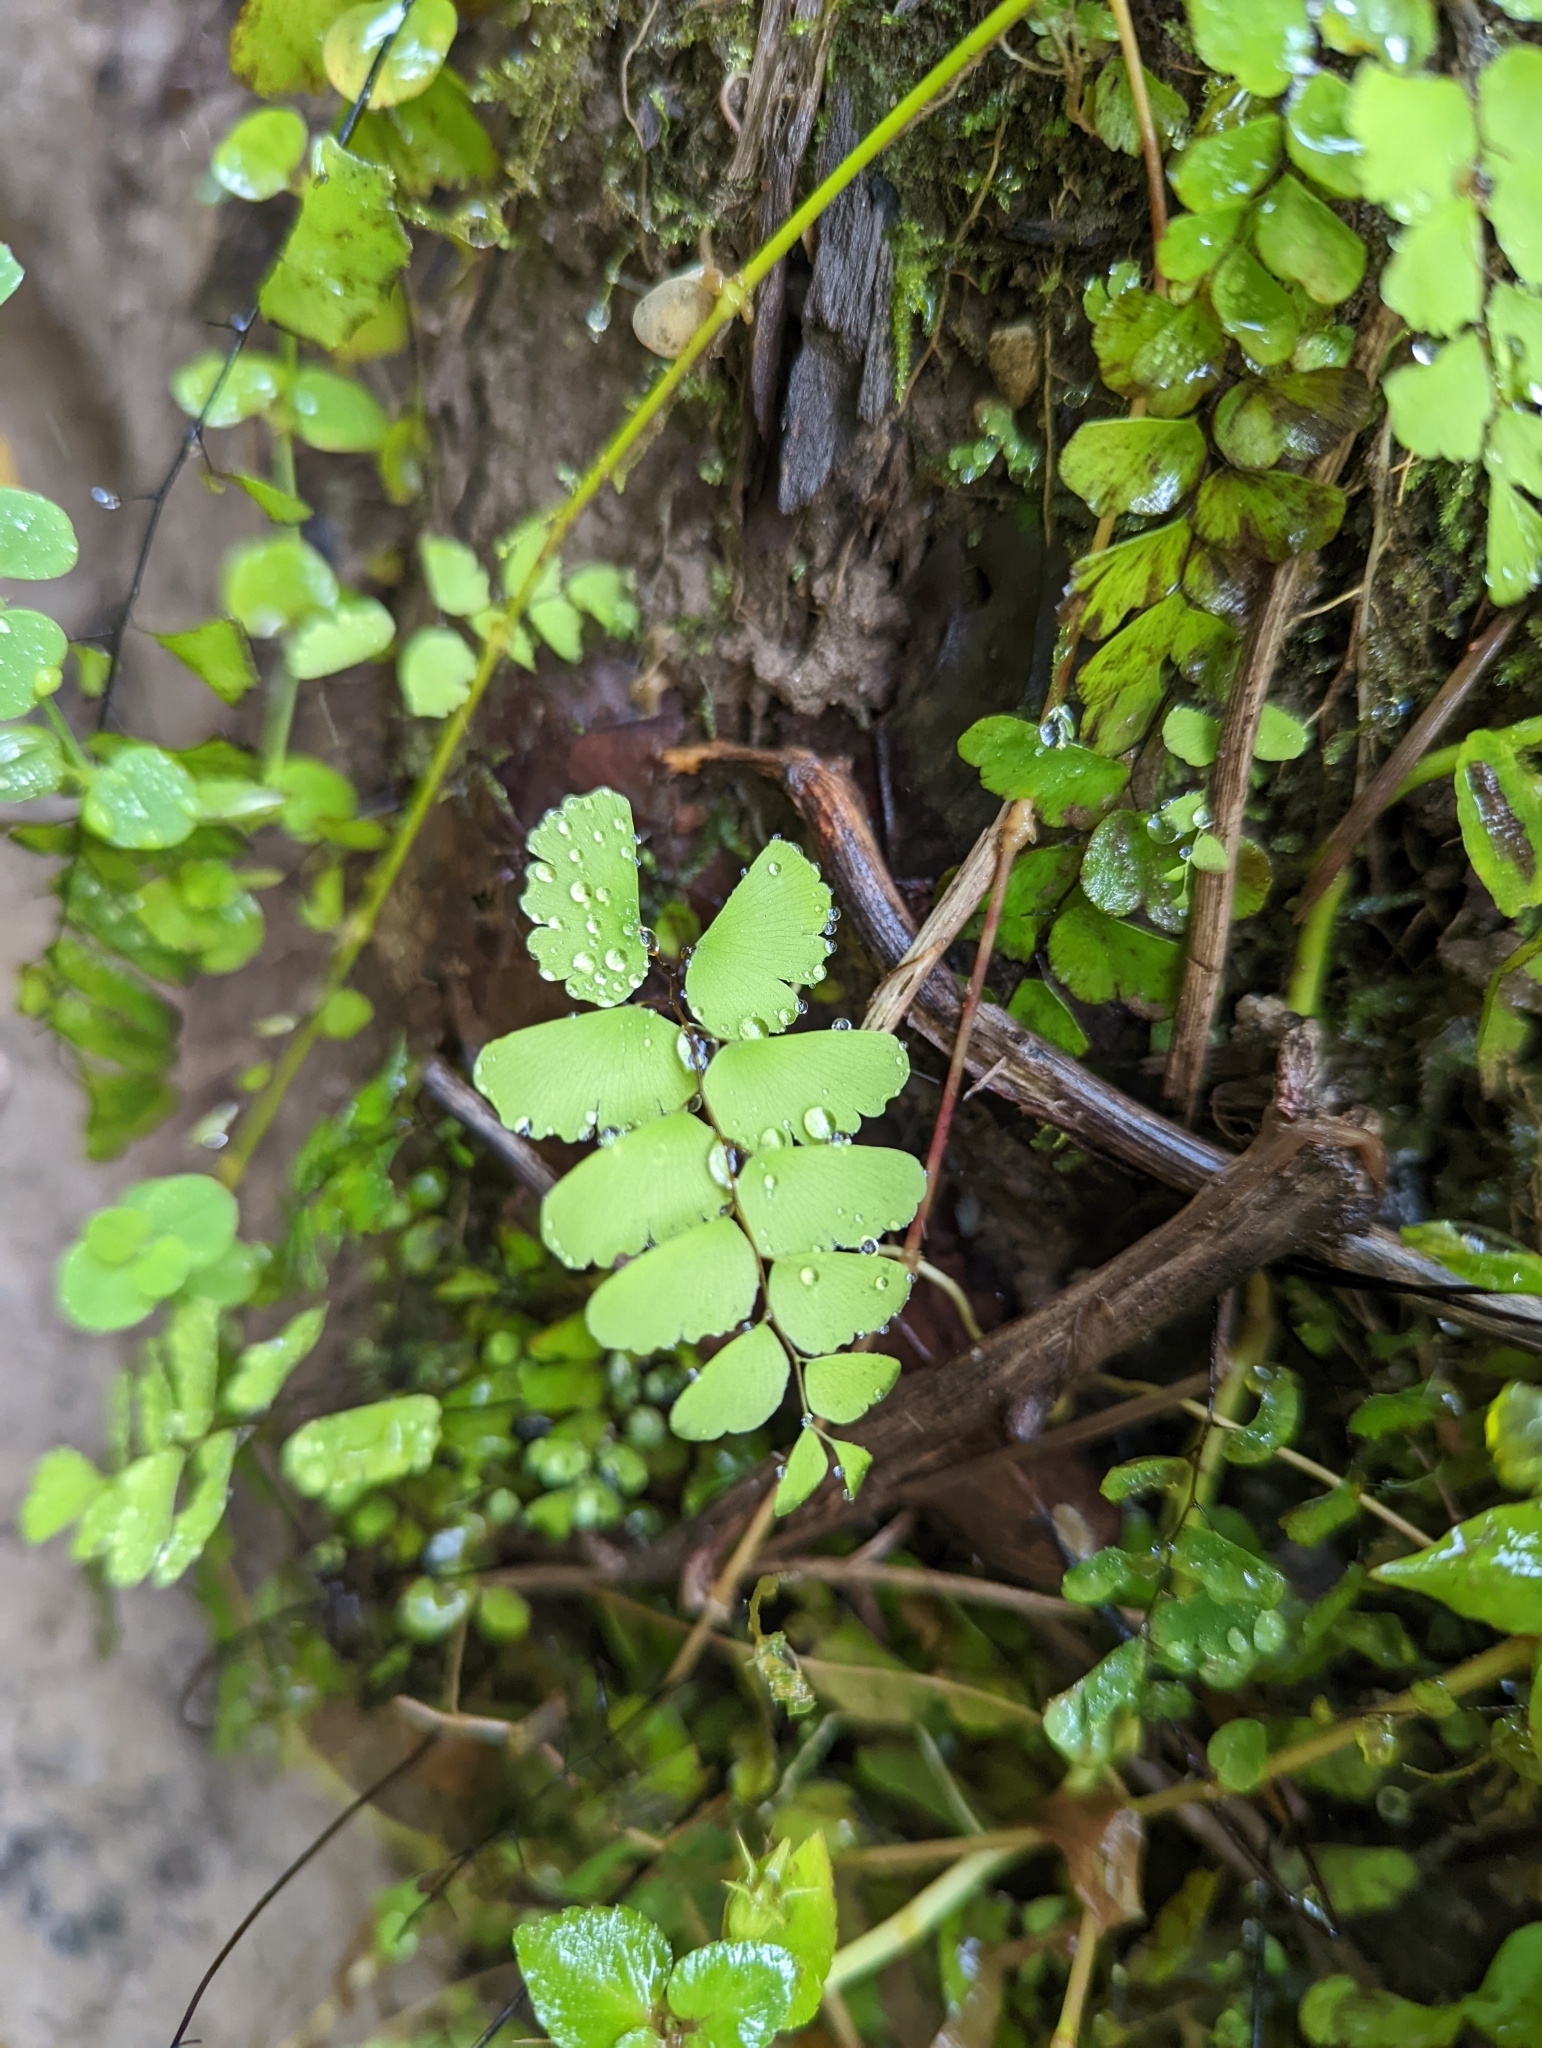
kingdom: Plantae
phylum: Tracheophyta
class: Polypodiopsida
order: Polypodiales
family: Pteridaceae
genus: Adiantum
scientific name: Adiantum philippense
